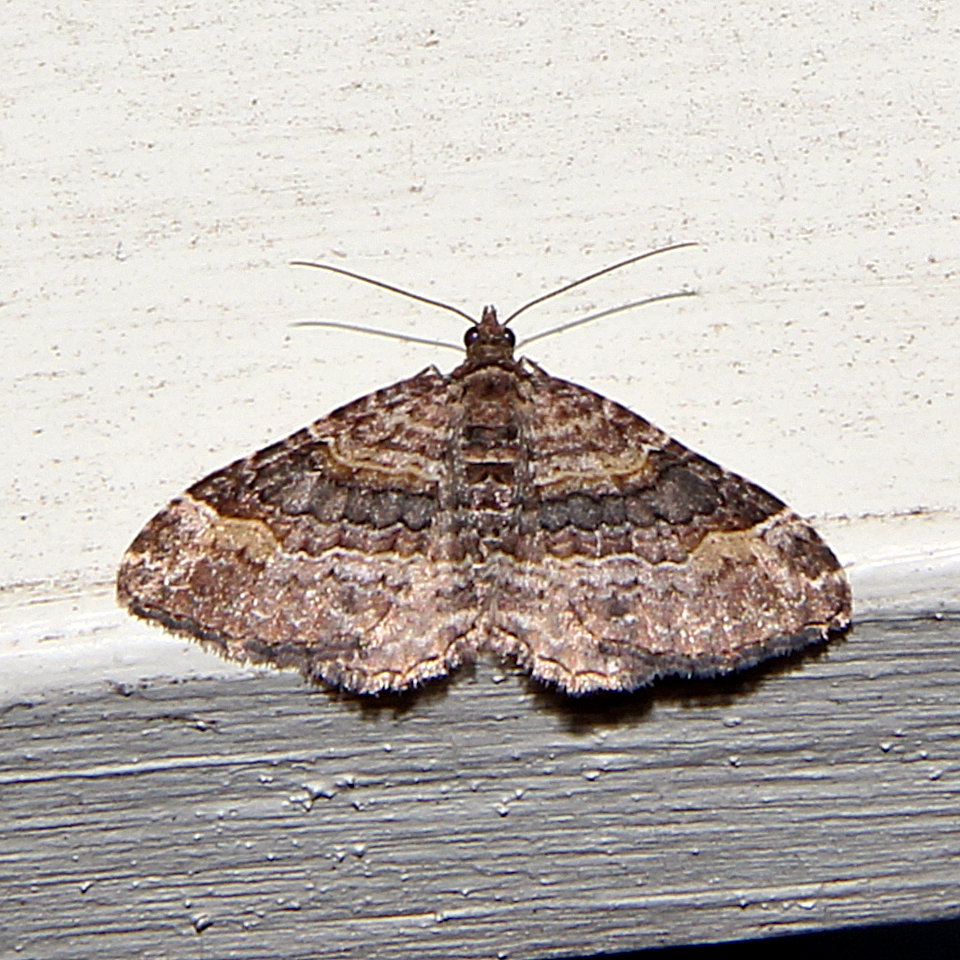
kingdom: Animalia
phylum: Arthropoda
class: Insecta
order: Lepidoptera
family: Geometridae
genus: Epyaxa
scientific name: Epyaxa lucidata
